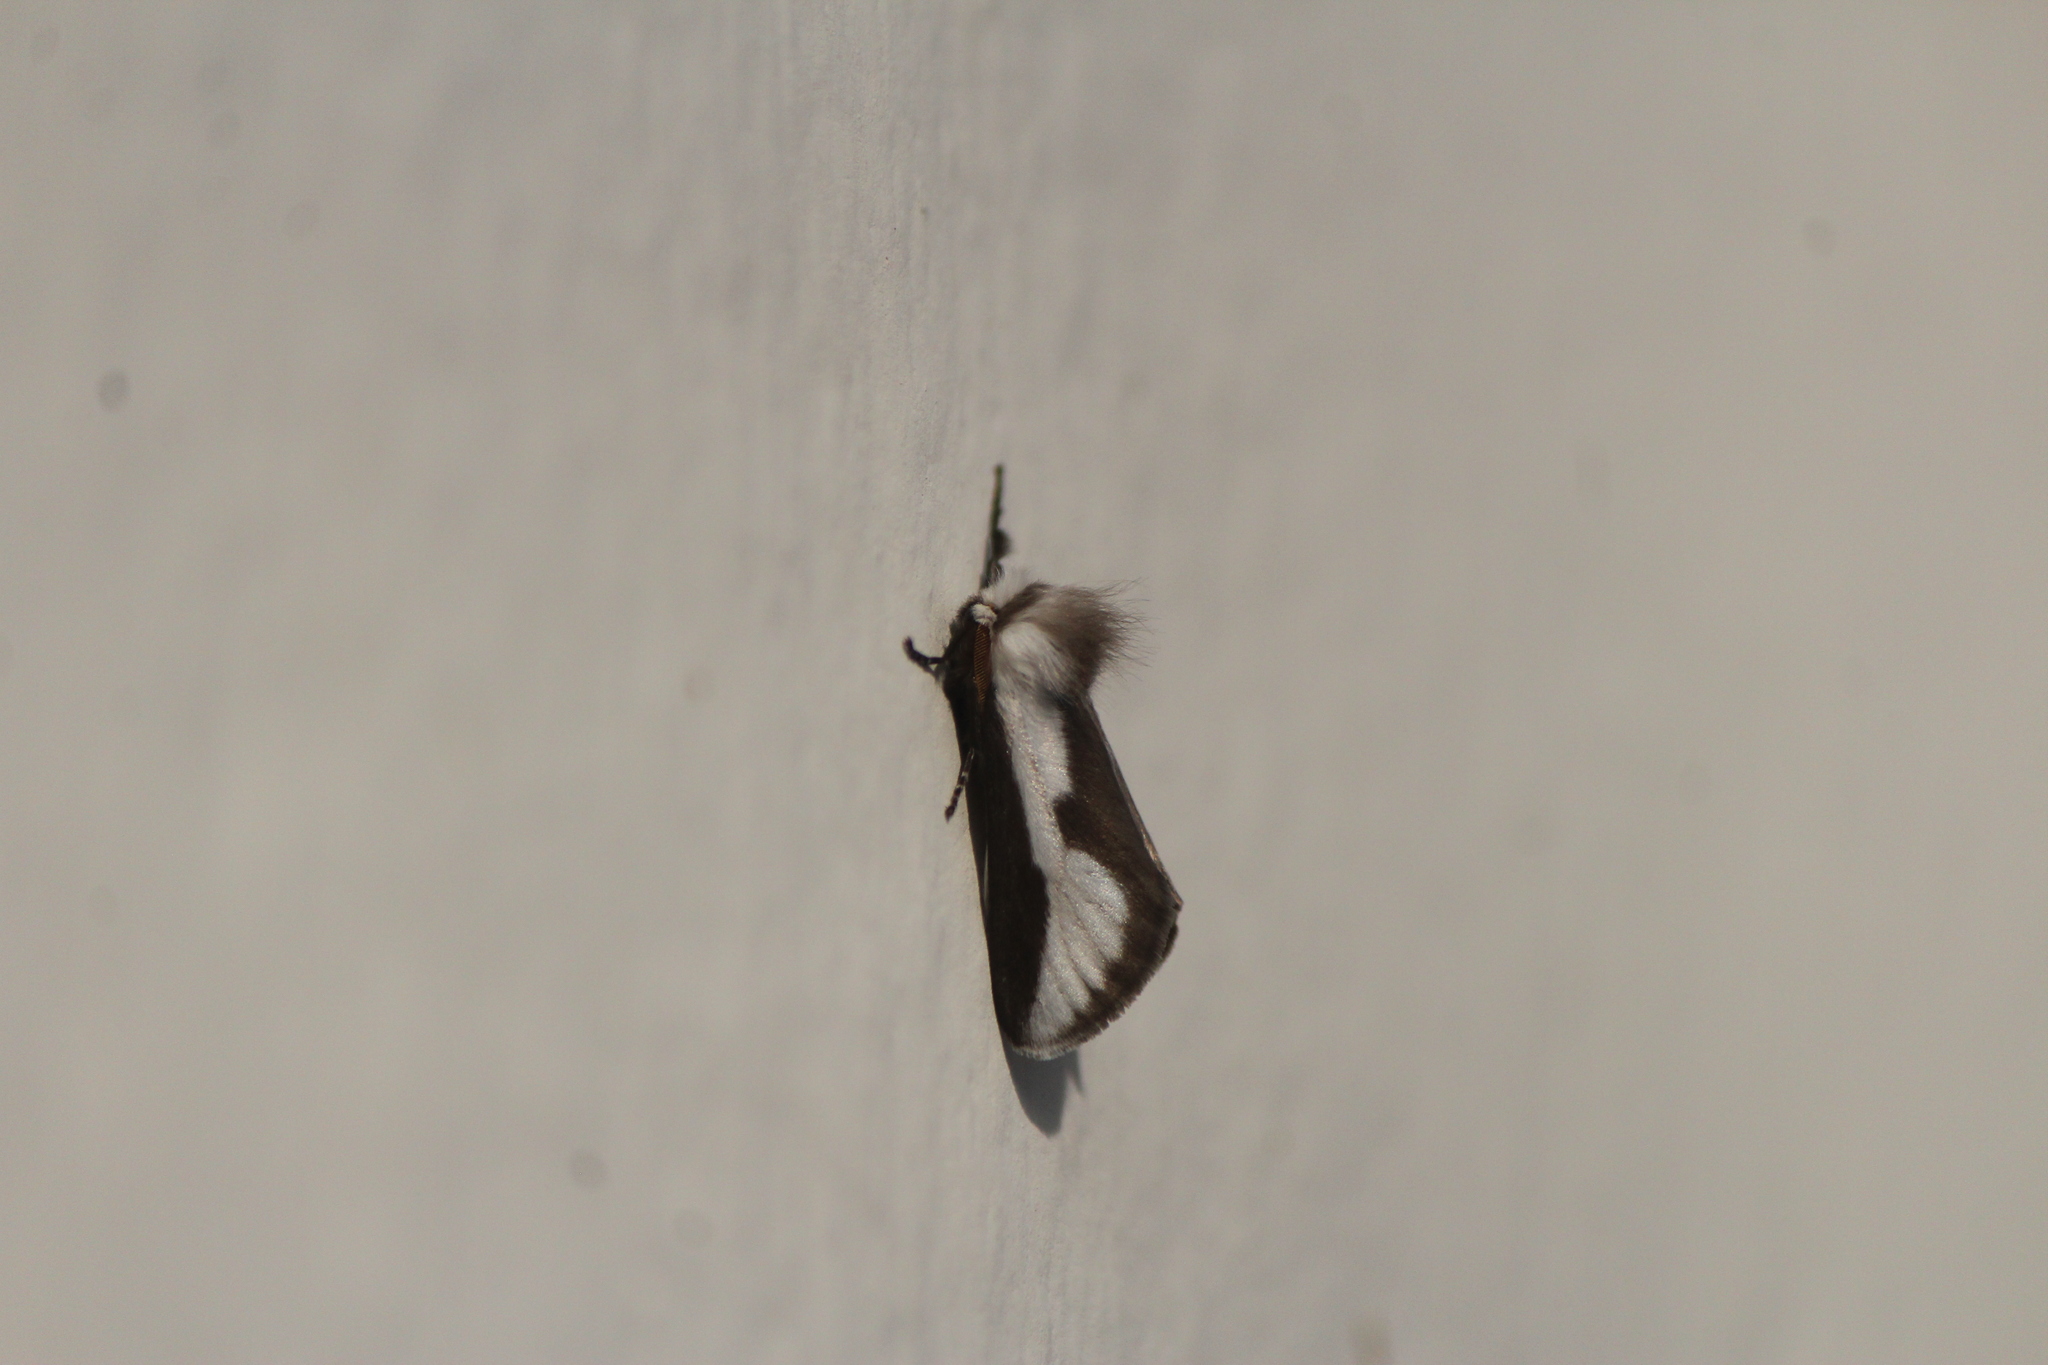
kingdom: Animalia
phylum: Arthropoda
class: Insecta
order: Lepidoptera
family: Megalopygidae
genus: Norape
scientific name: Norape tener
